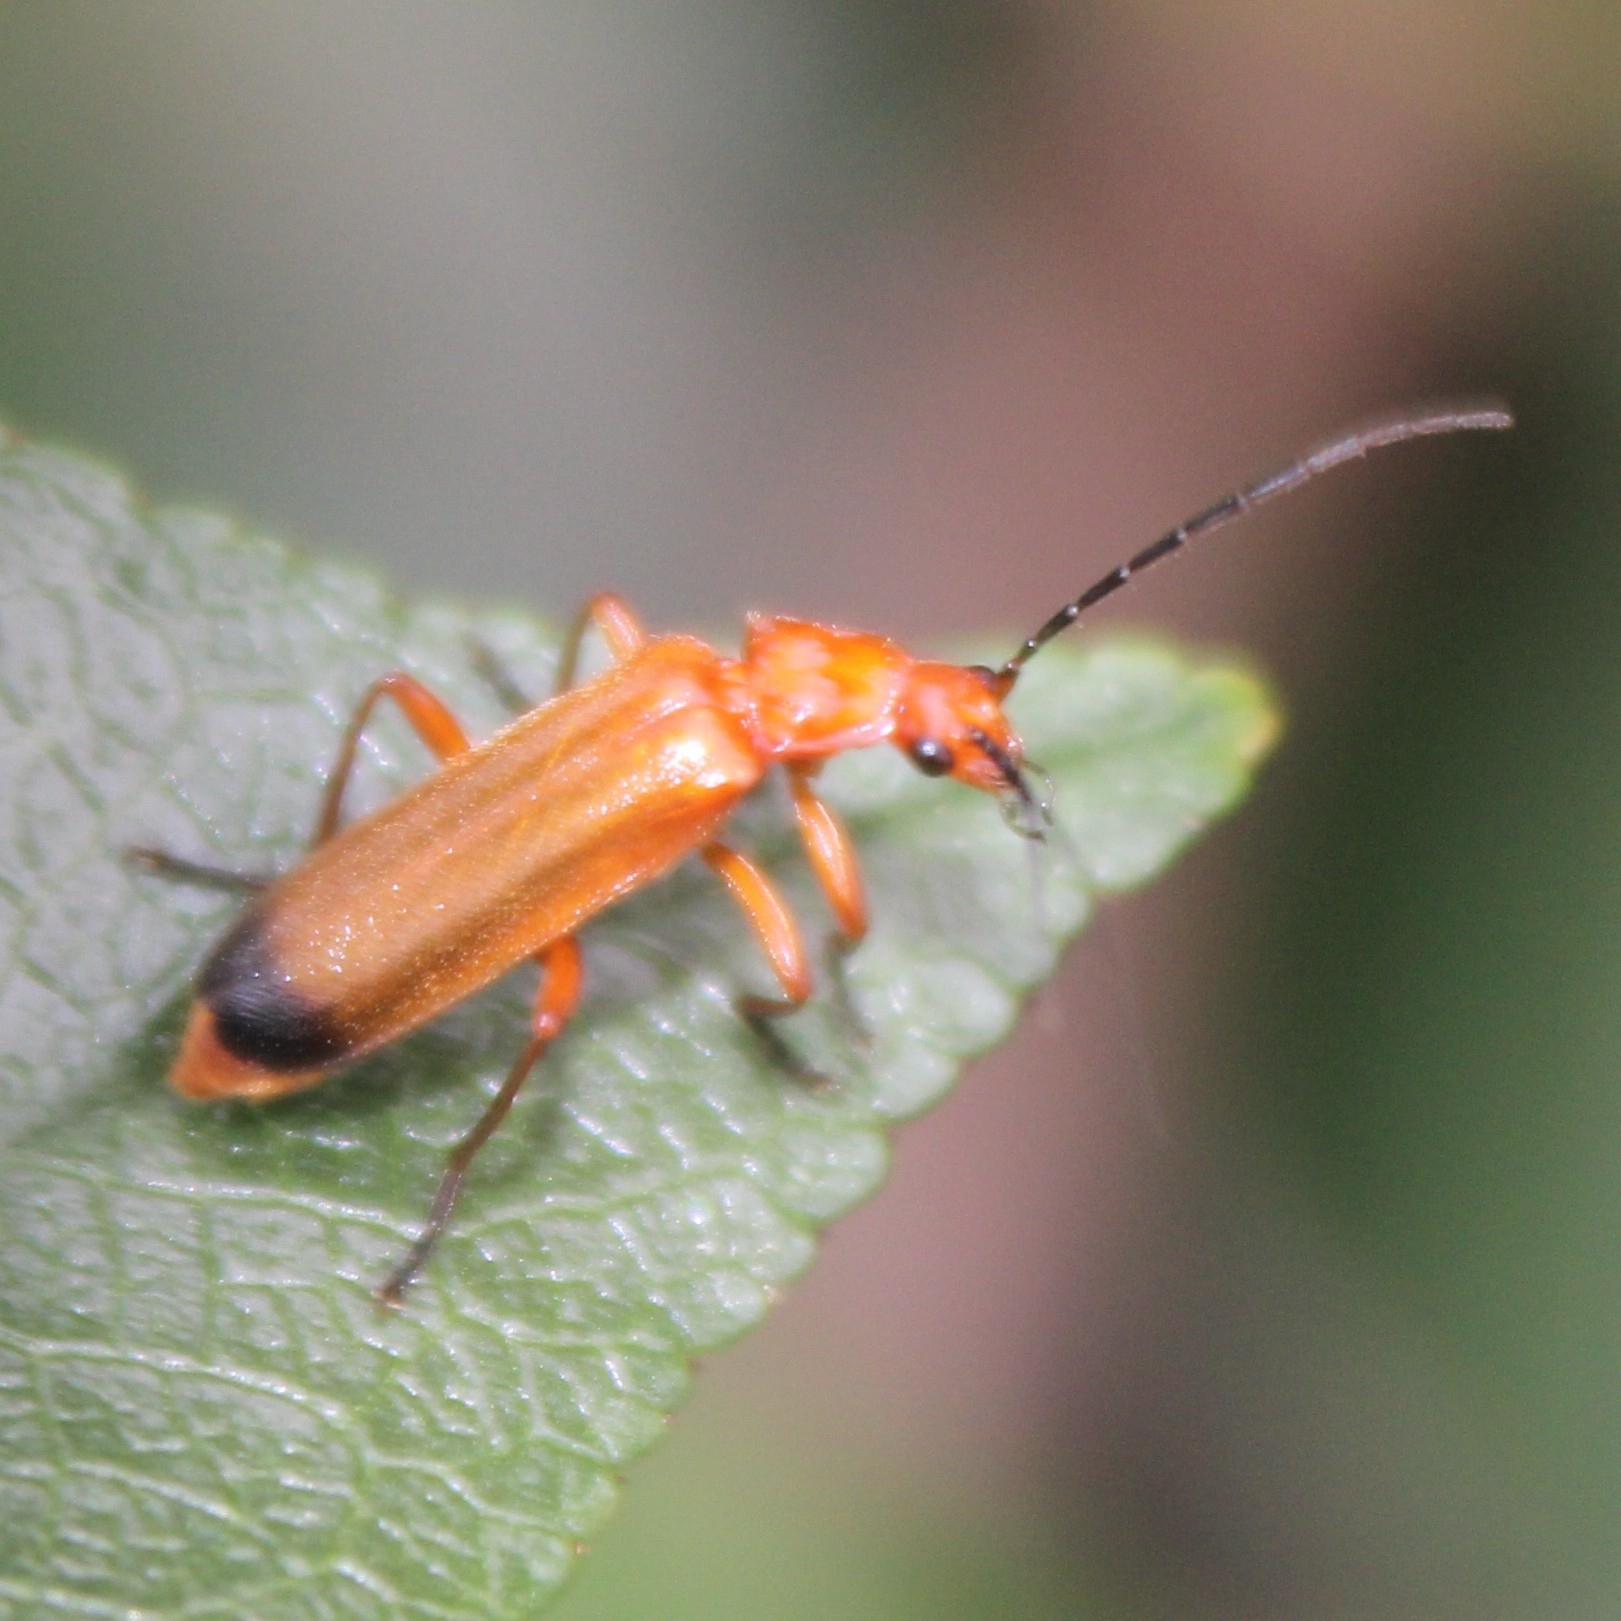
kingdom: Animalia
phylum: Arthropoda
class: Insecta
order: Coleoptera
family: Cantharidae
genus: Rhagonycha
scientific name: Rhagonycha fulva
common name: Common red soldier beetle
